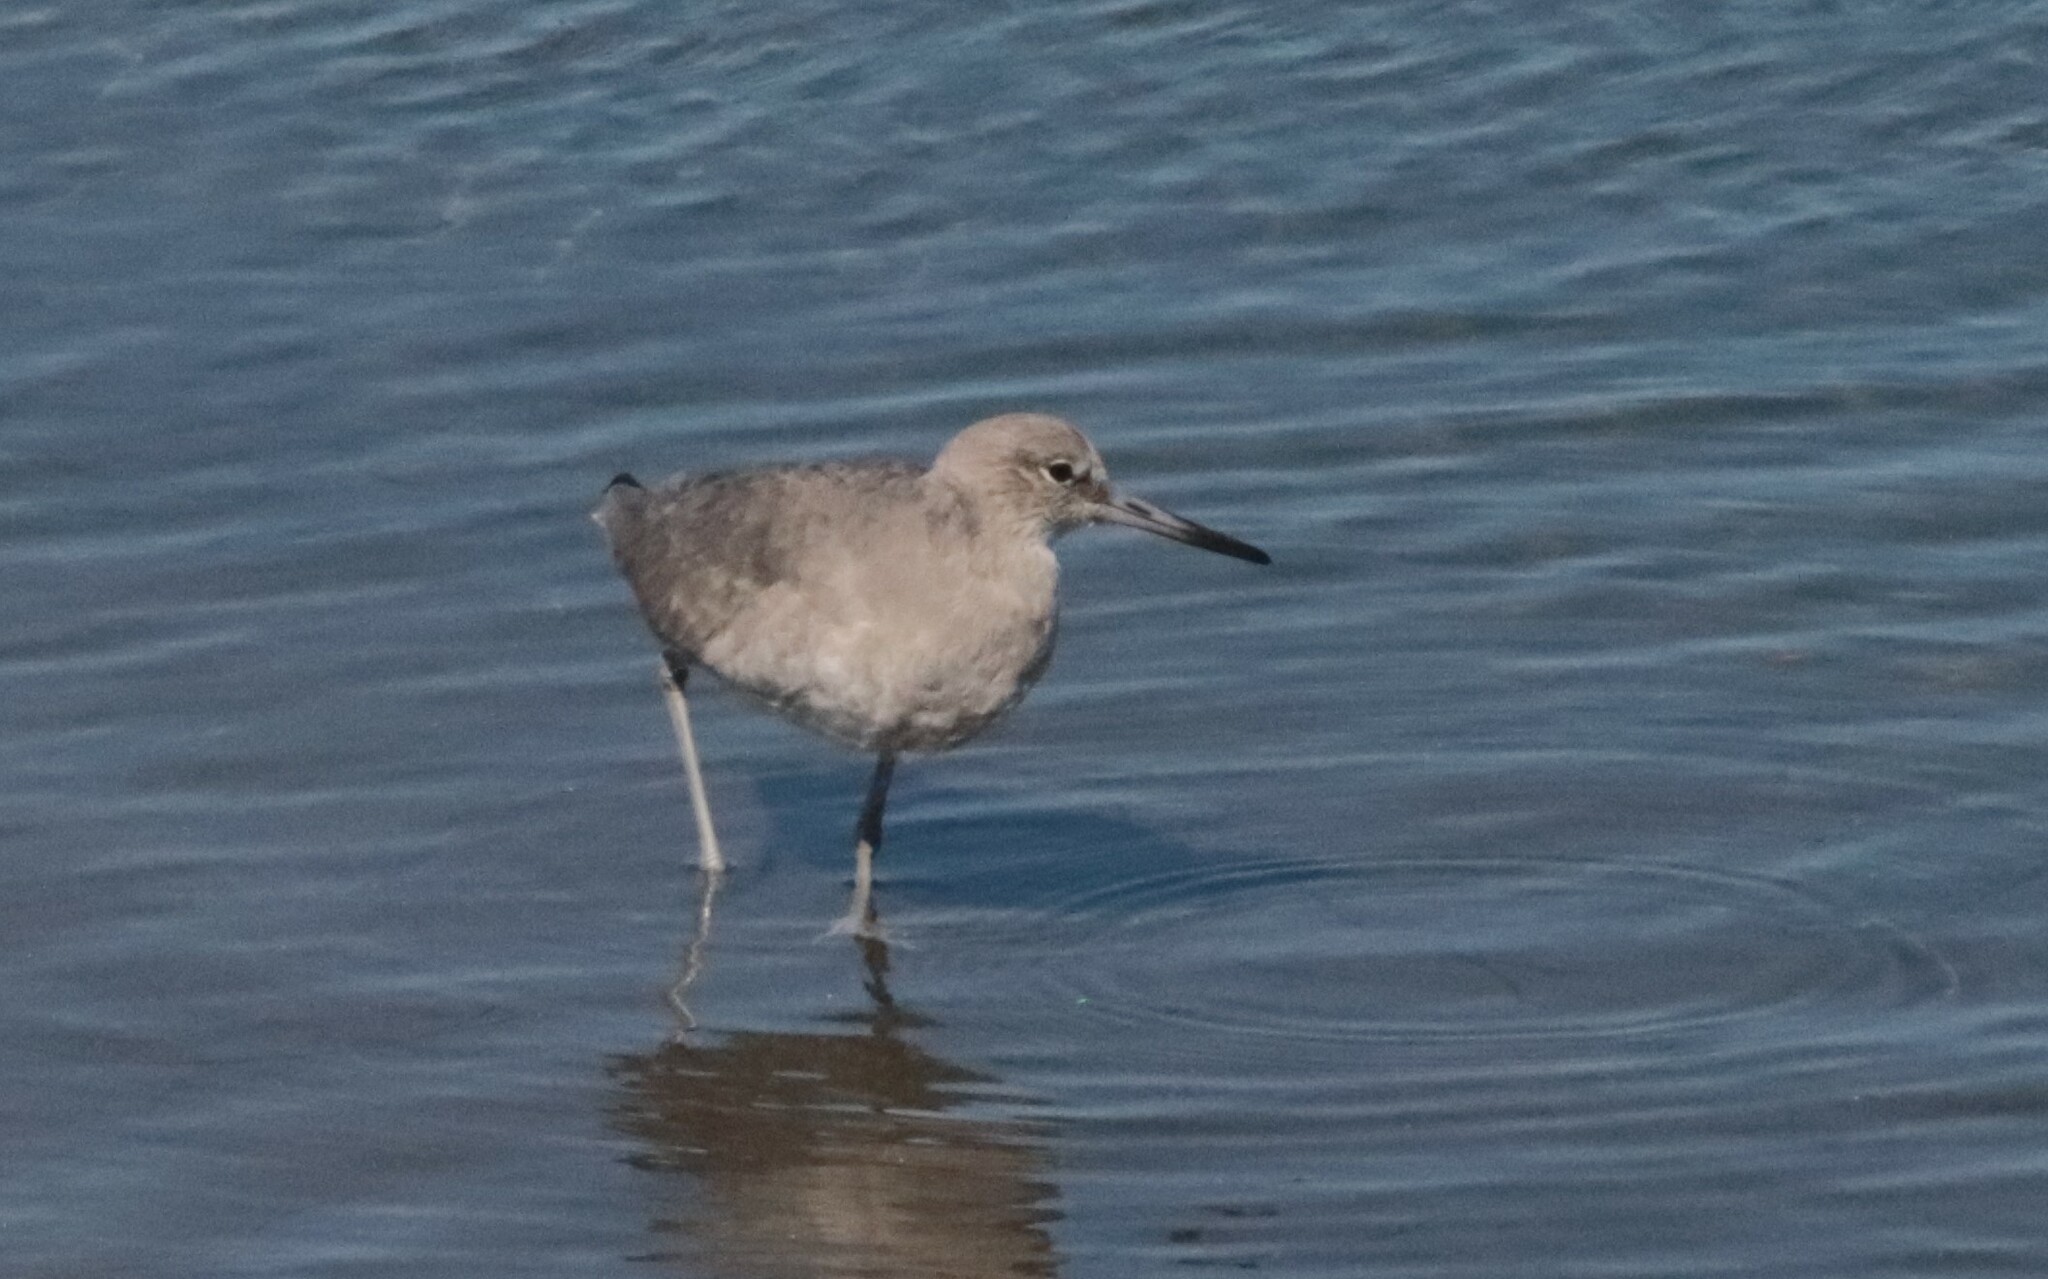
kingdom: Animalia
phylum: Chordata
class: Aves
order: Charadriiformes
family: Scolopacidae
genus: Tringa
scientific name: Tringa semipalmata
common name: Willet
